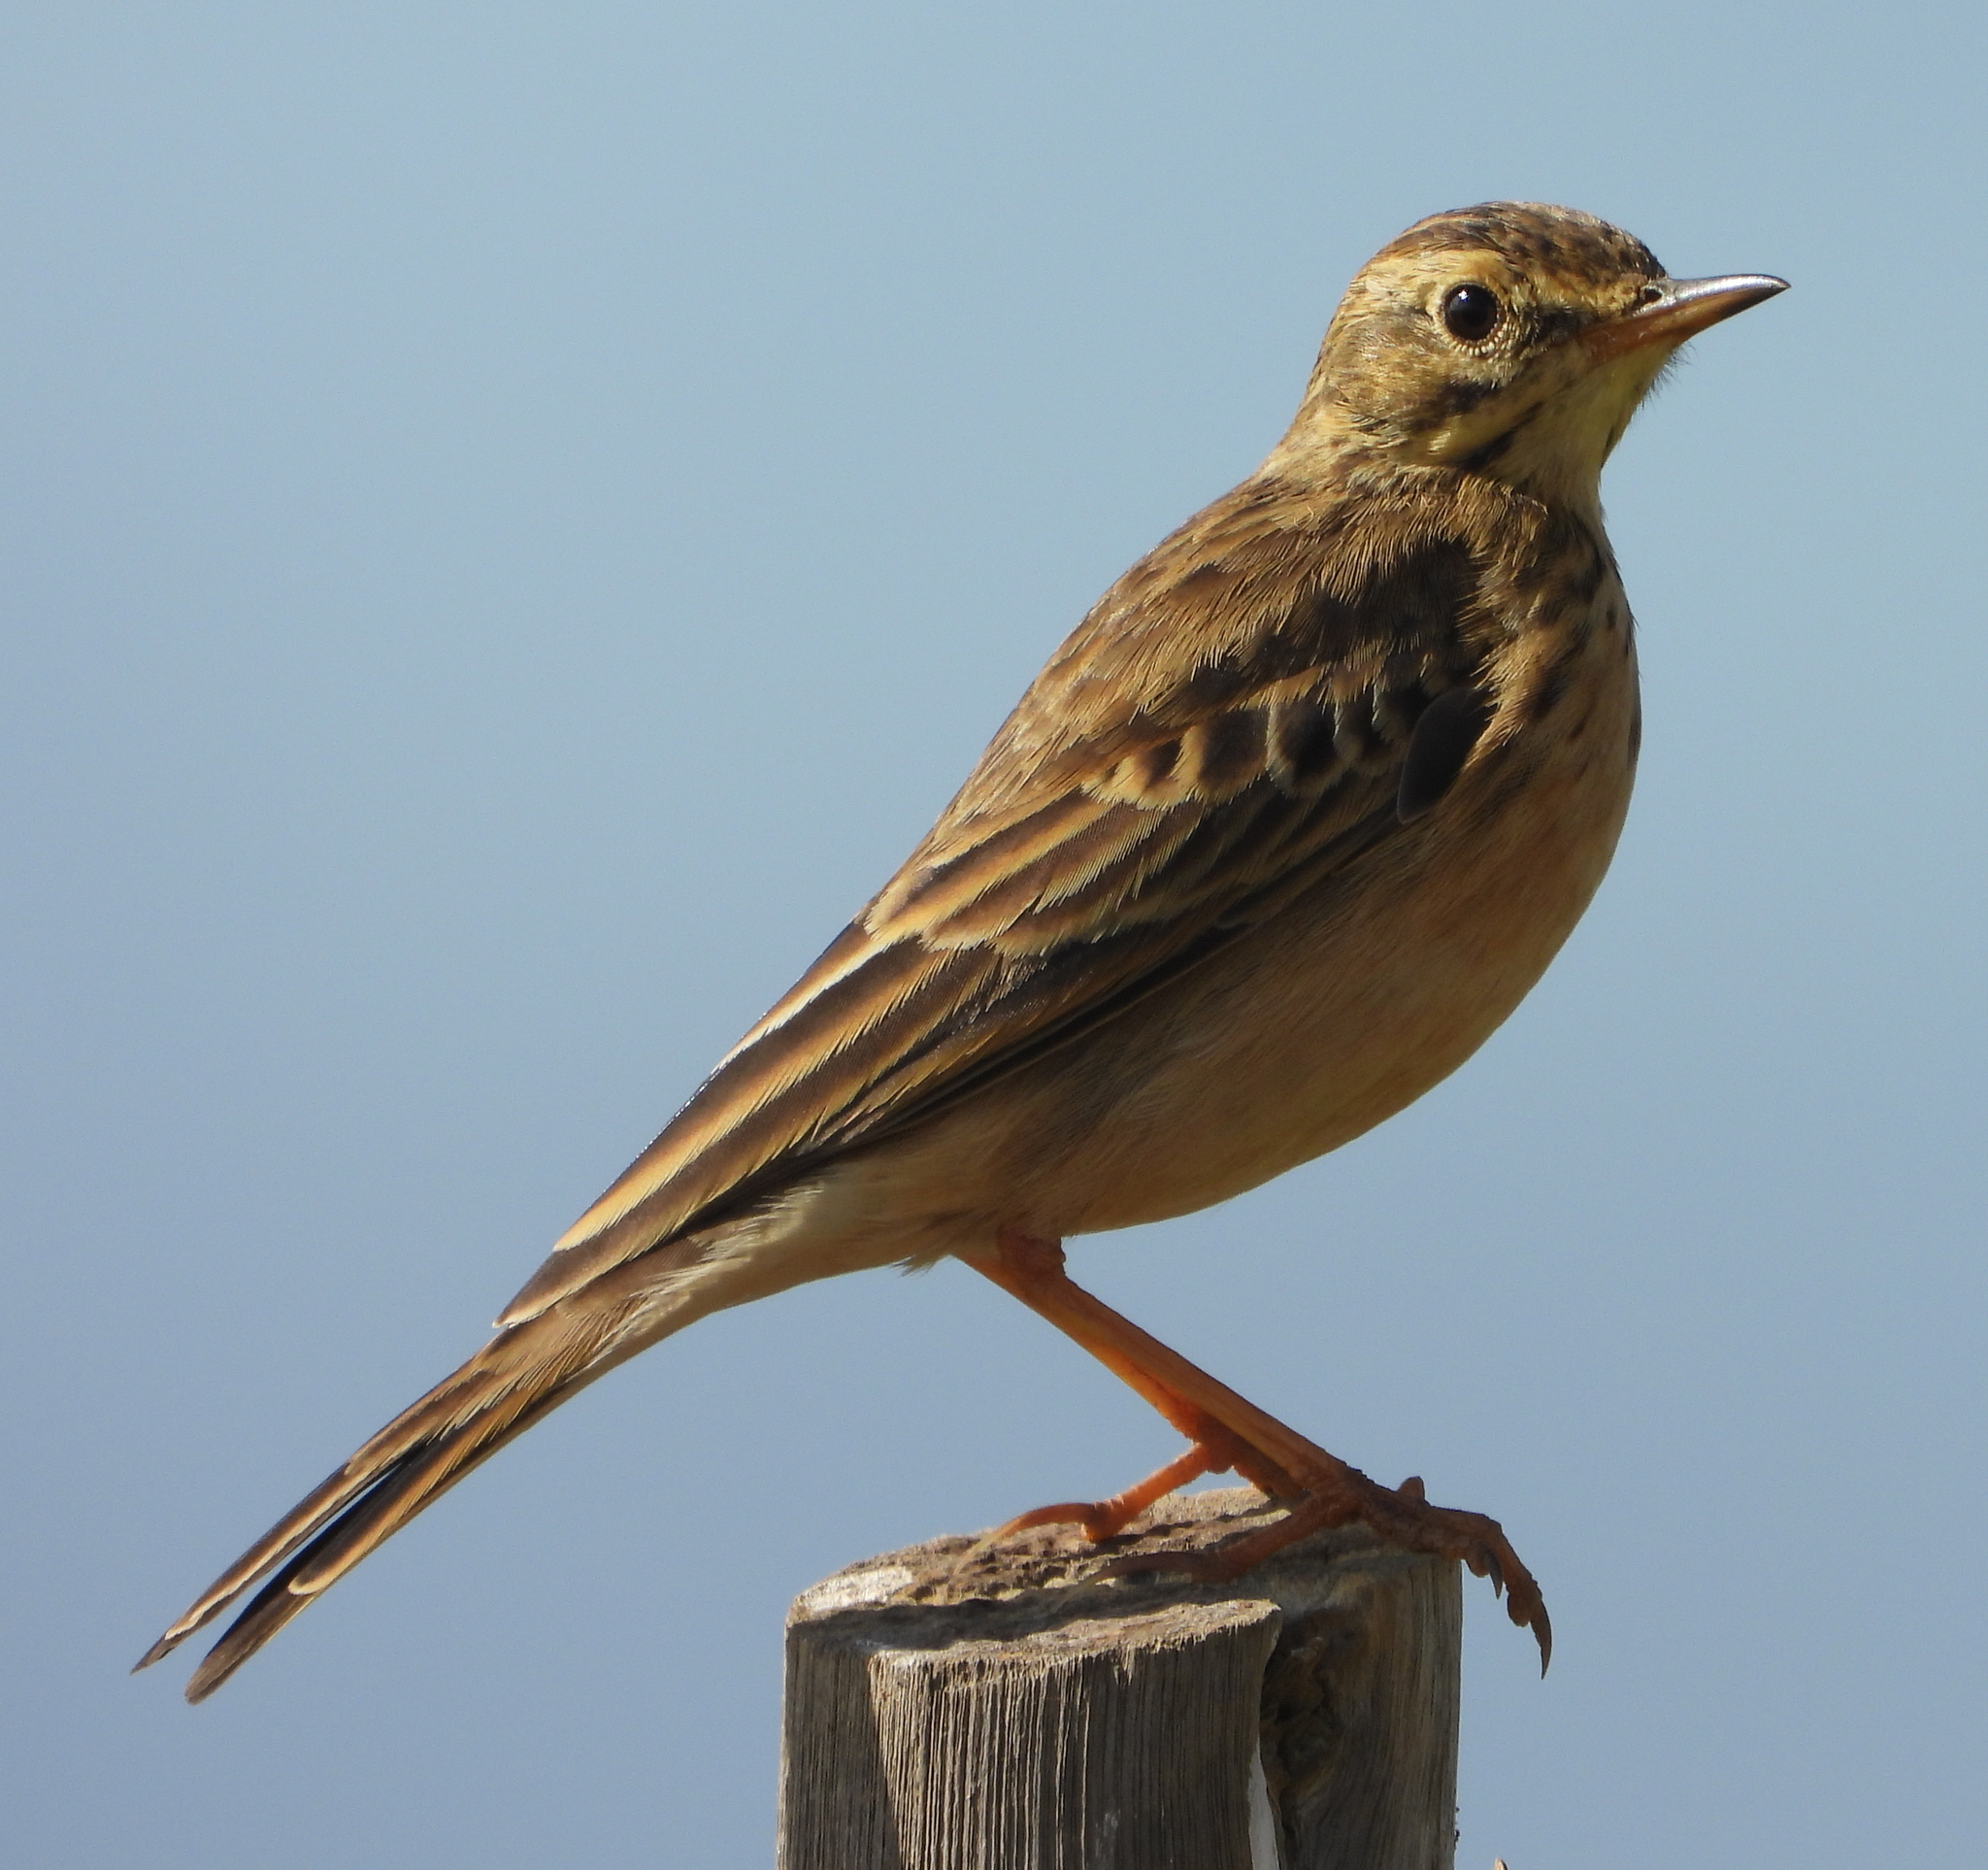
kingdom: Animalia
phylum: Chordata
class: Aves
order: Passeriformes
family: Motacillidae
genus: Anthus
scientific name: Anthus cinnamomeus
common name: African pipit
